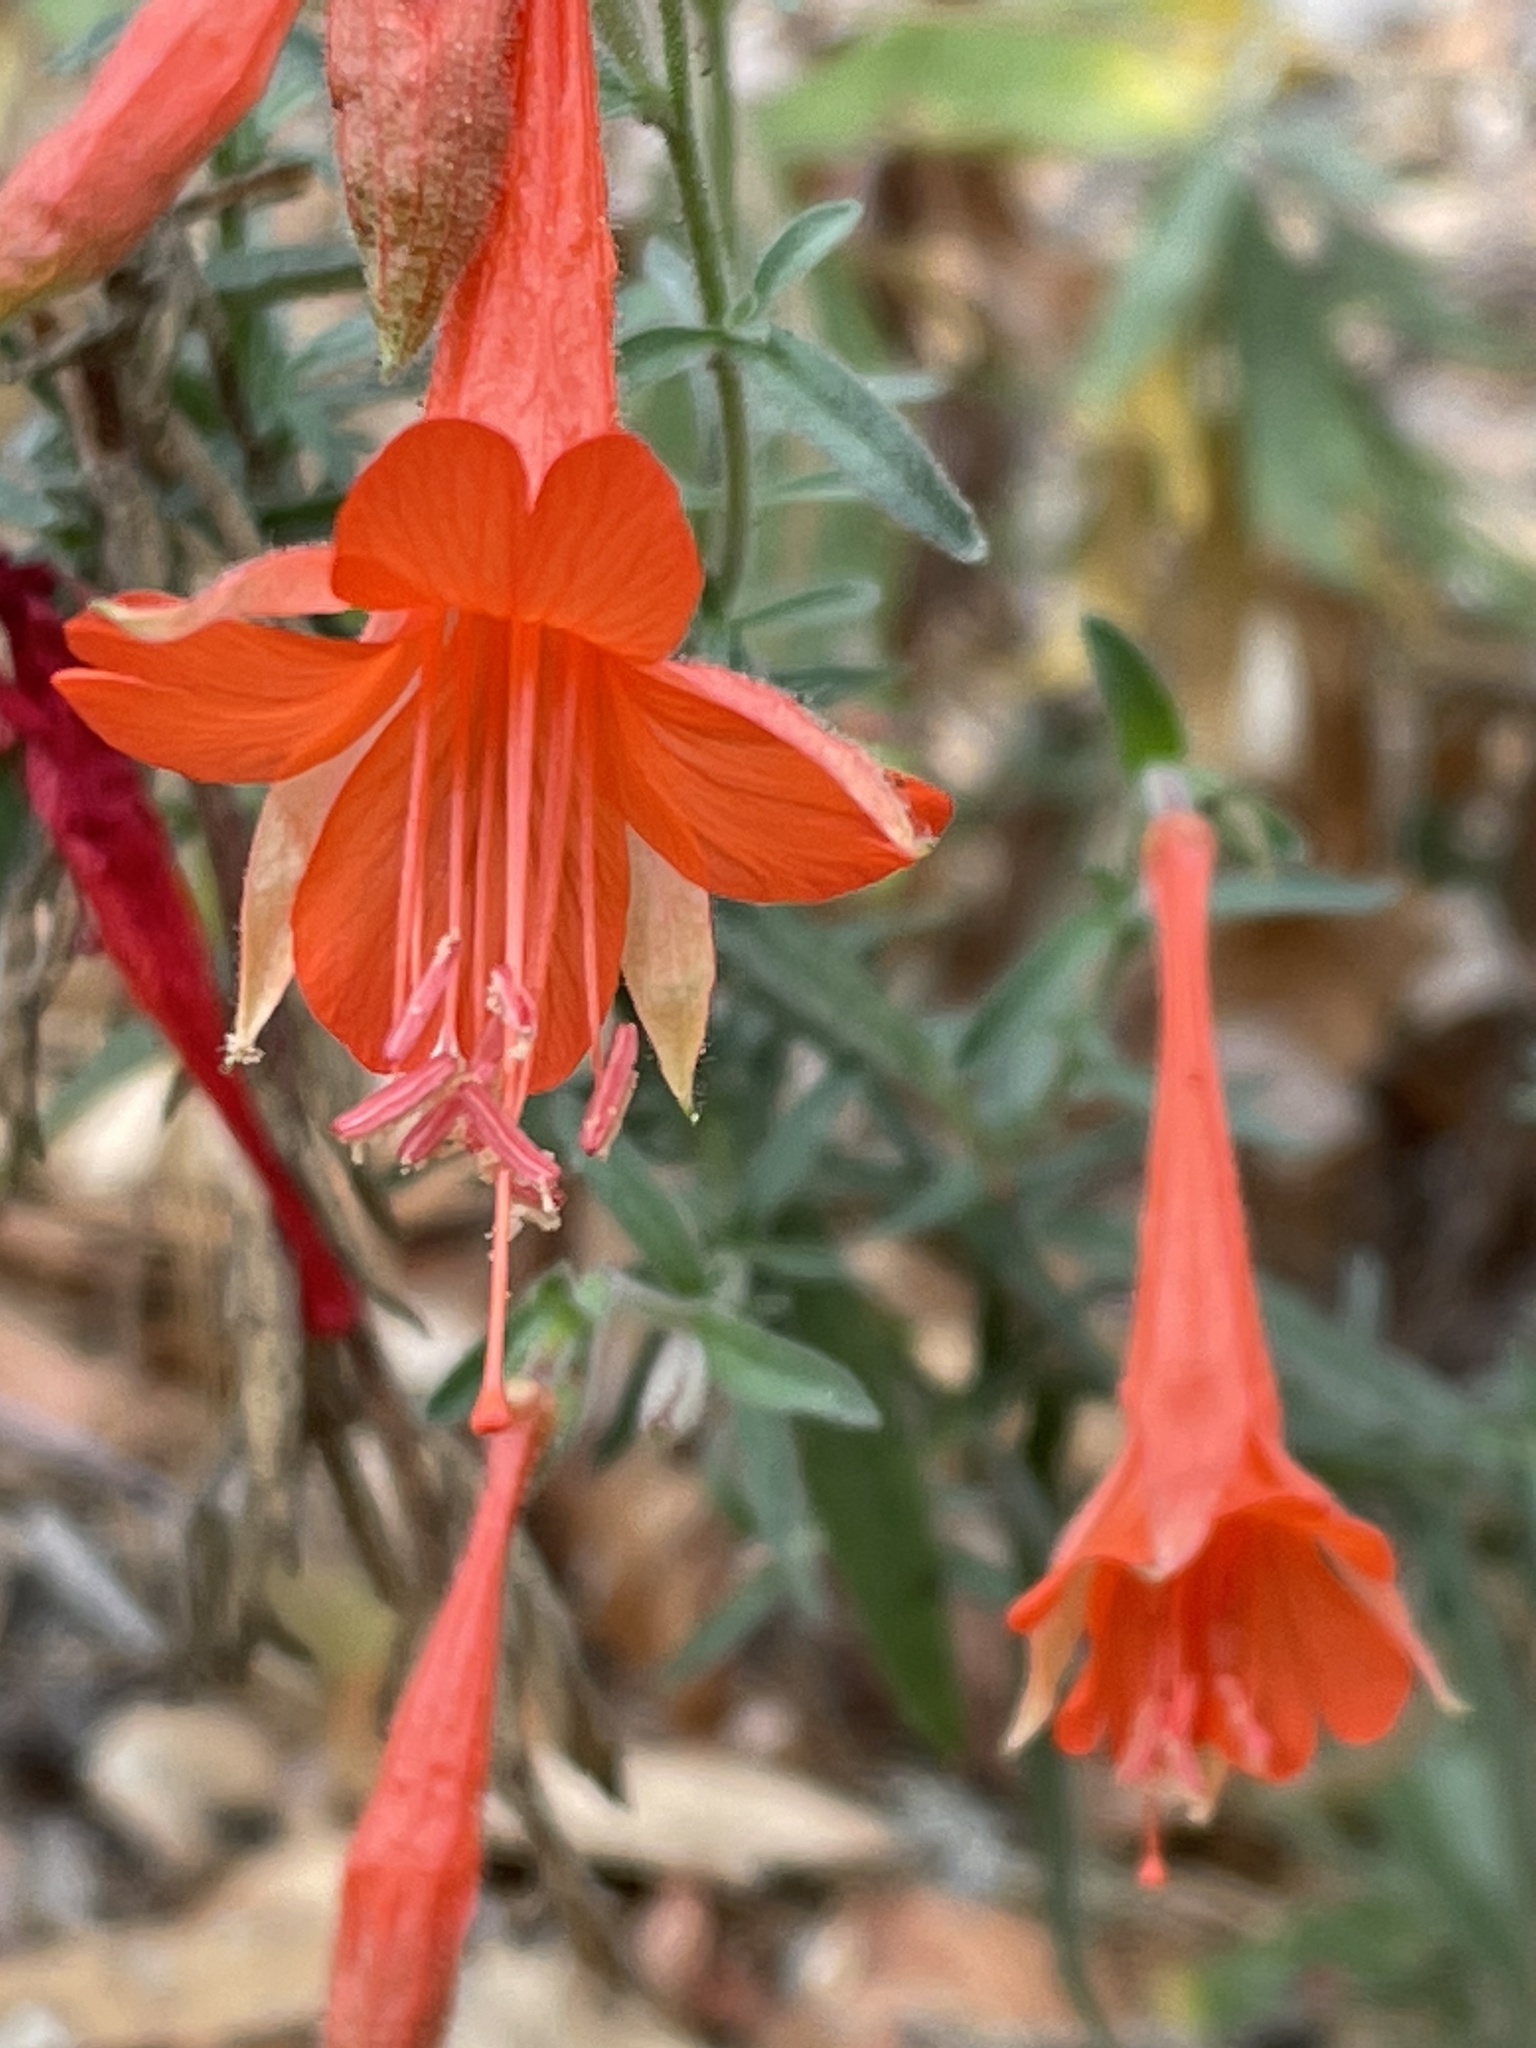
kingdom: Plantae
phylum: Tracheophyta
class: Magnoliopsida
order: Myrtales
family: Onagraceae
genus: Epilobium
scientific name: Epilobium canum
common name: California-fuchsia
